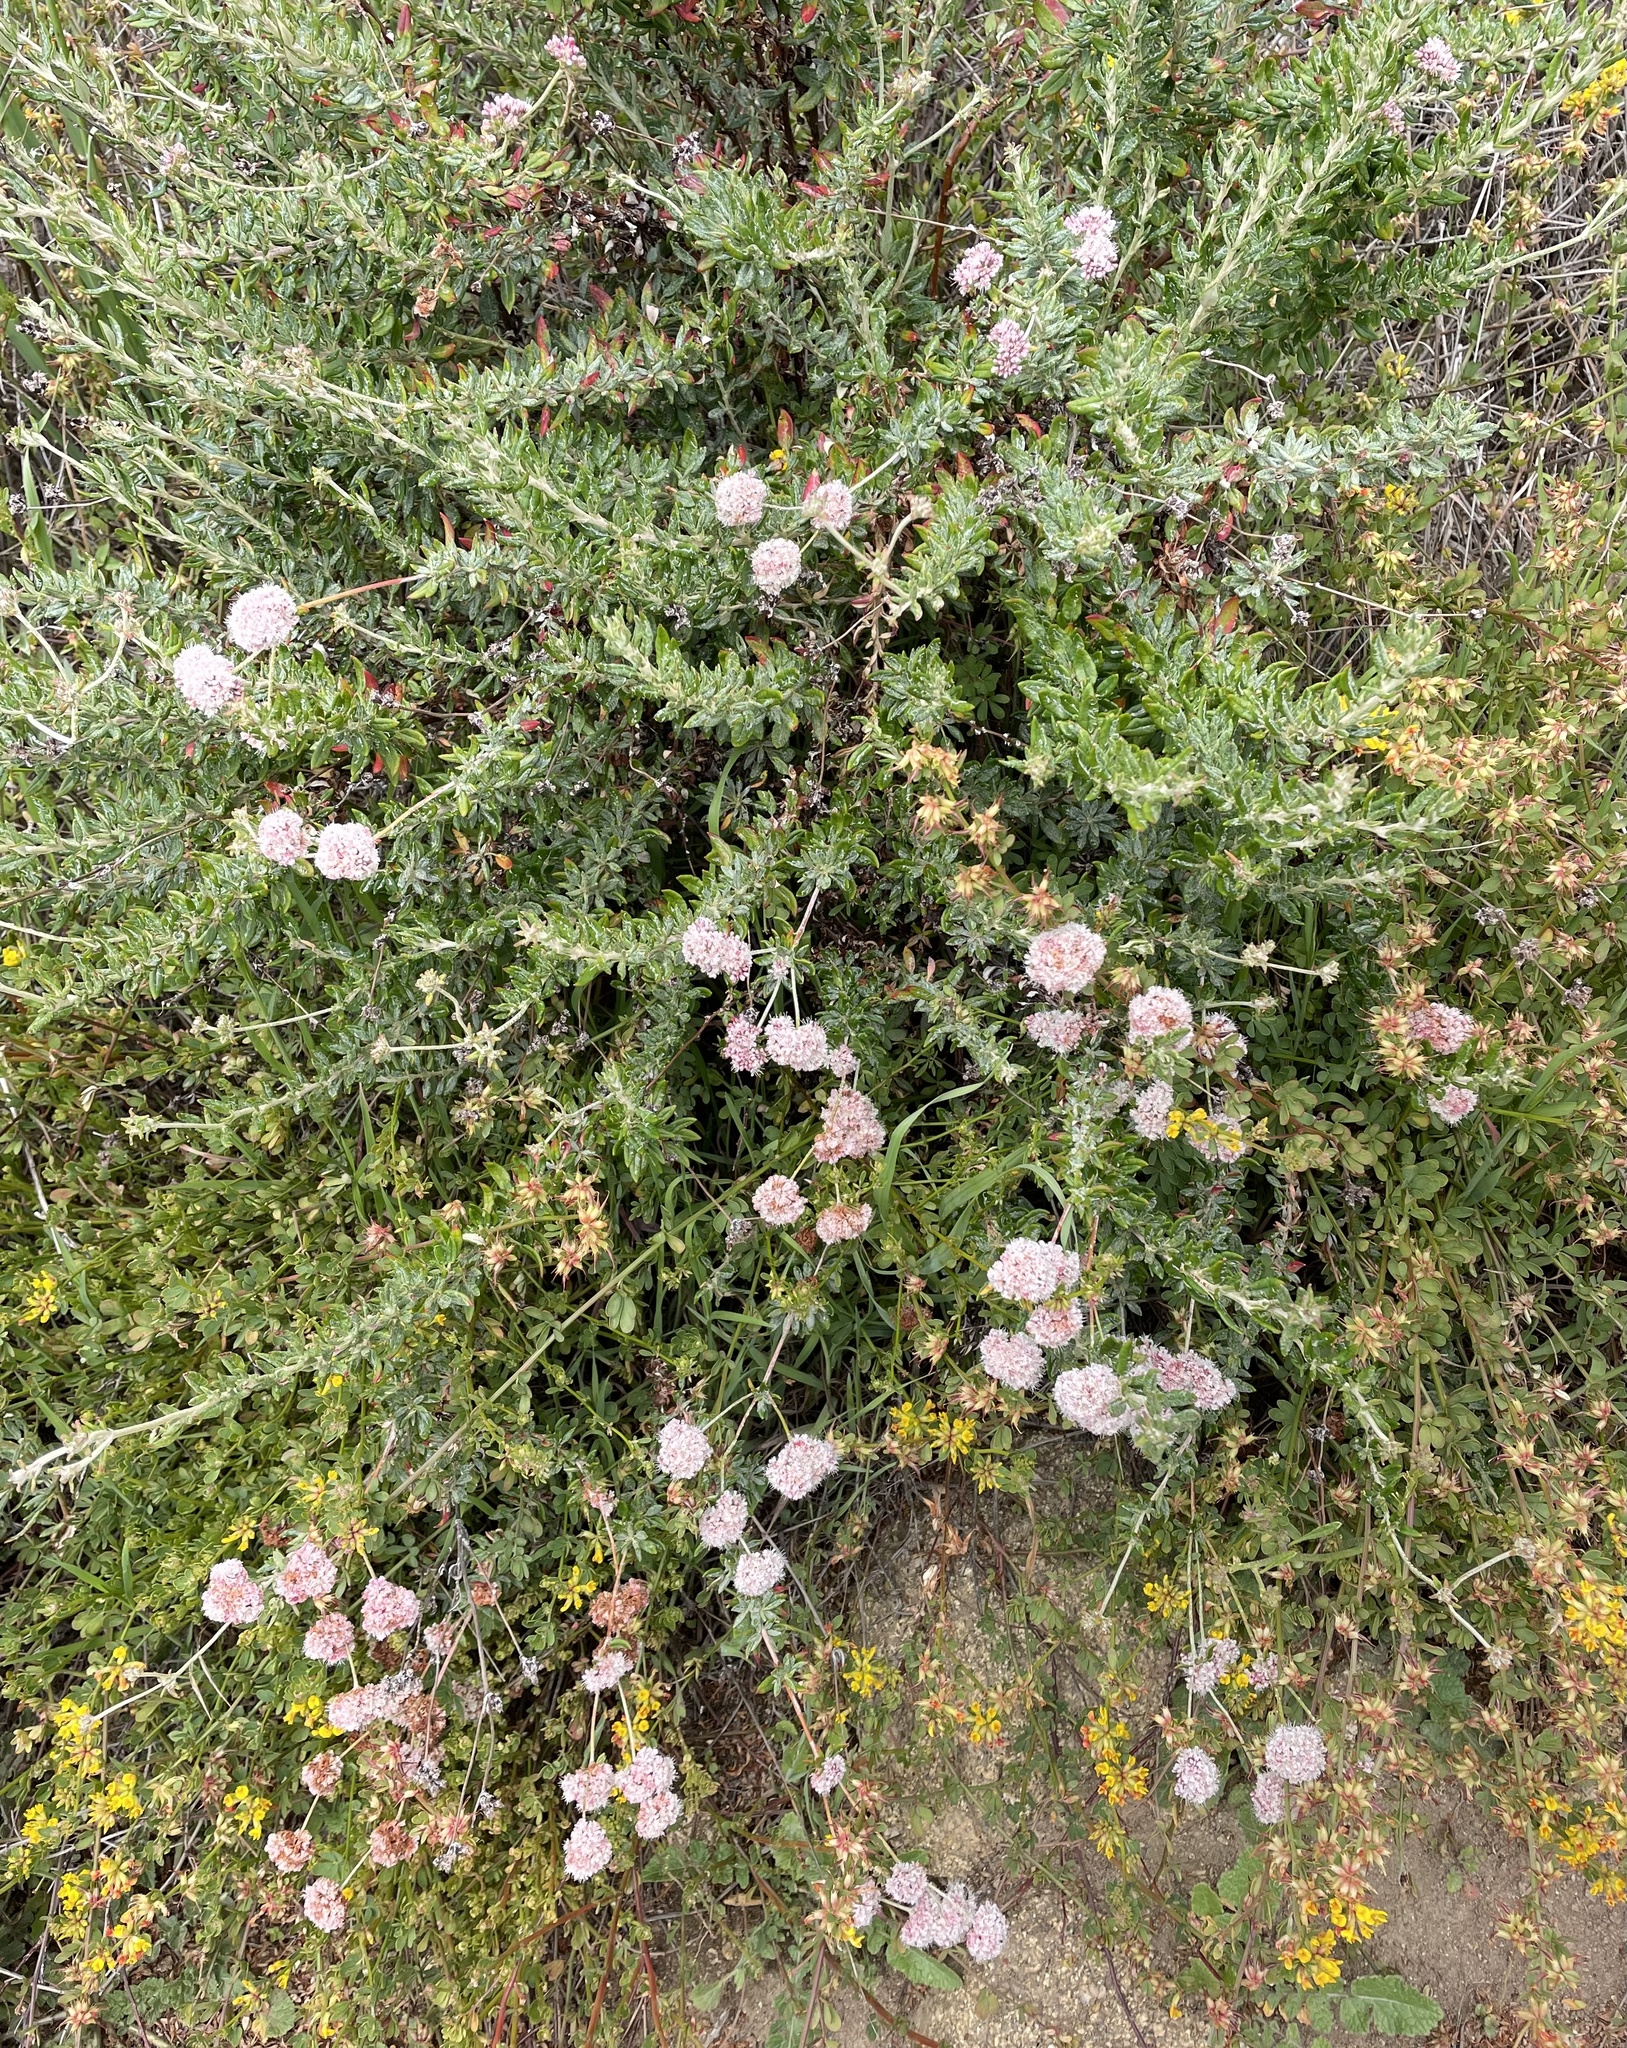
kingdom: Plantae
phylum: Tracheophyta
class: Magnoliopsida
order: Caryophyllales
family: Polygonaceae
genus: Eriogonum
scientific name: Eriogonum parvifolium
